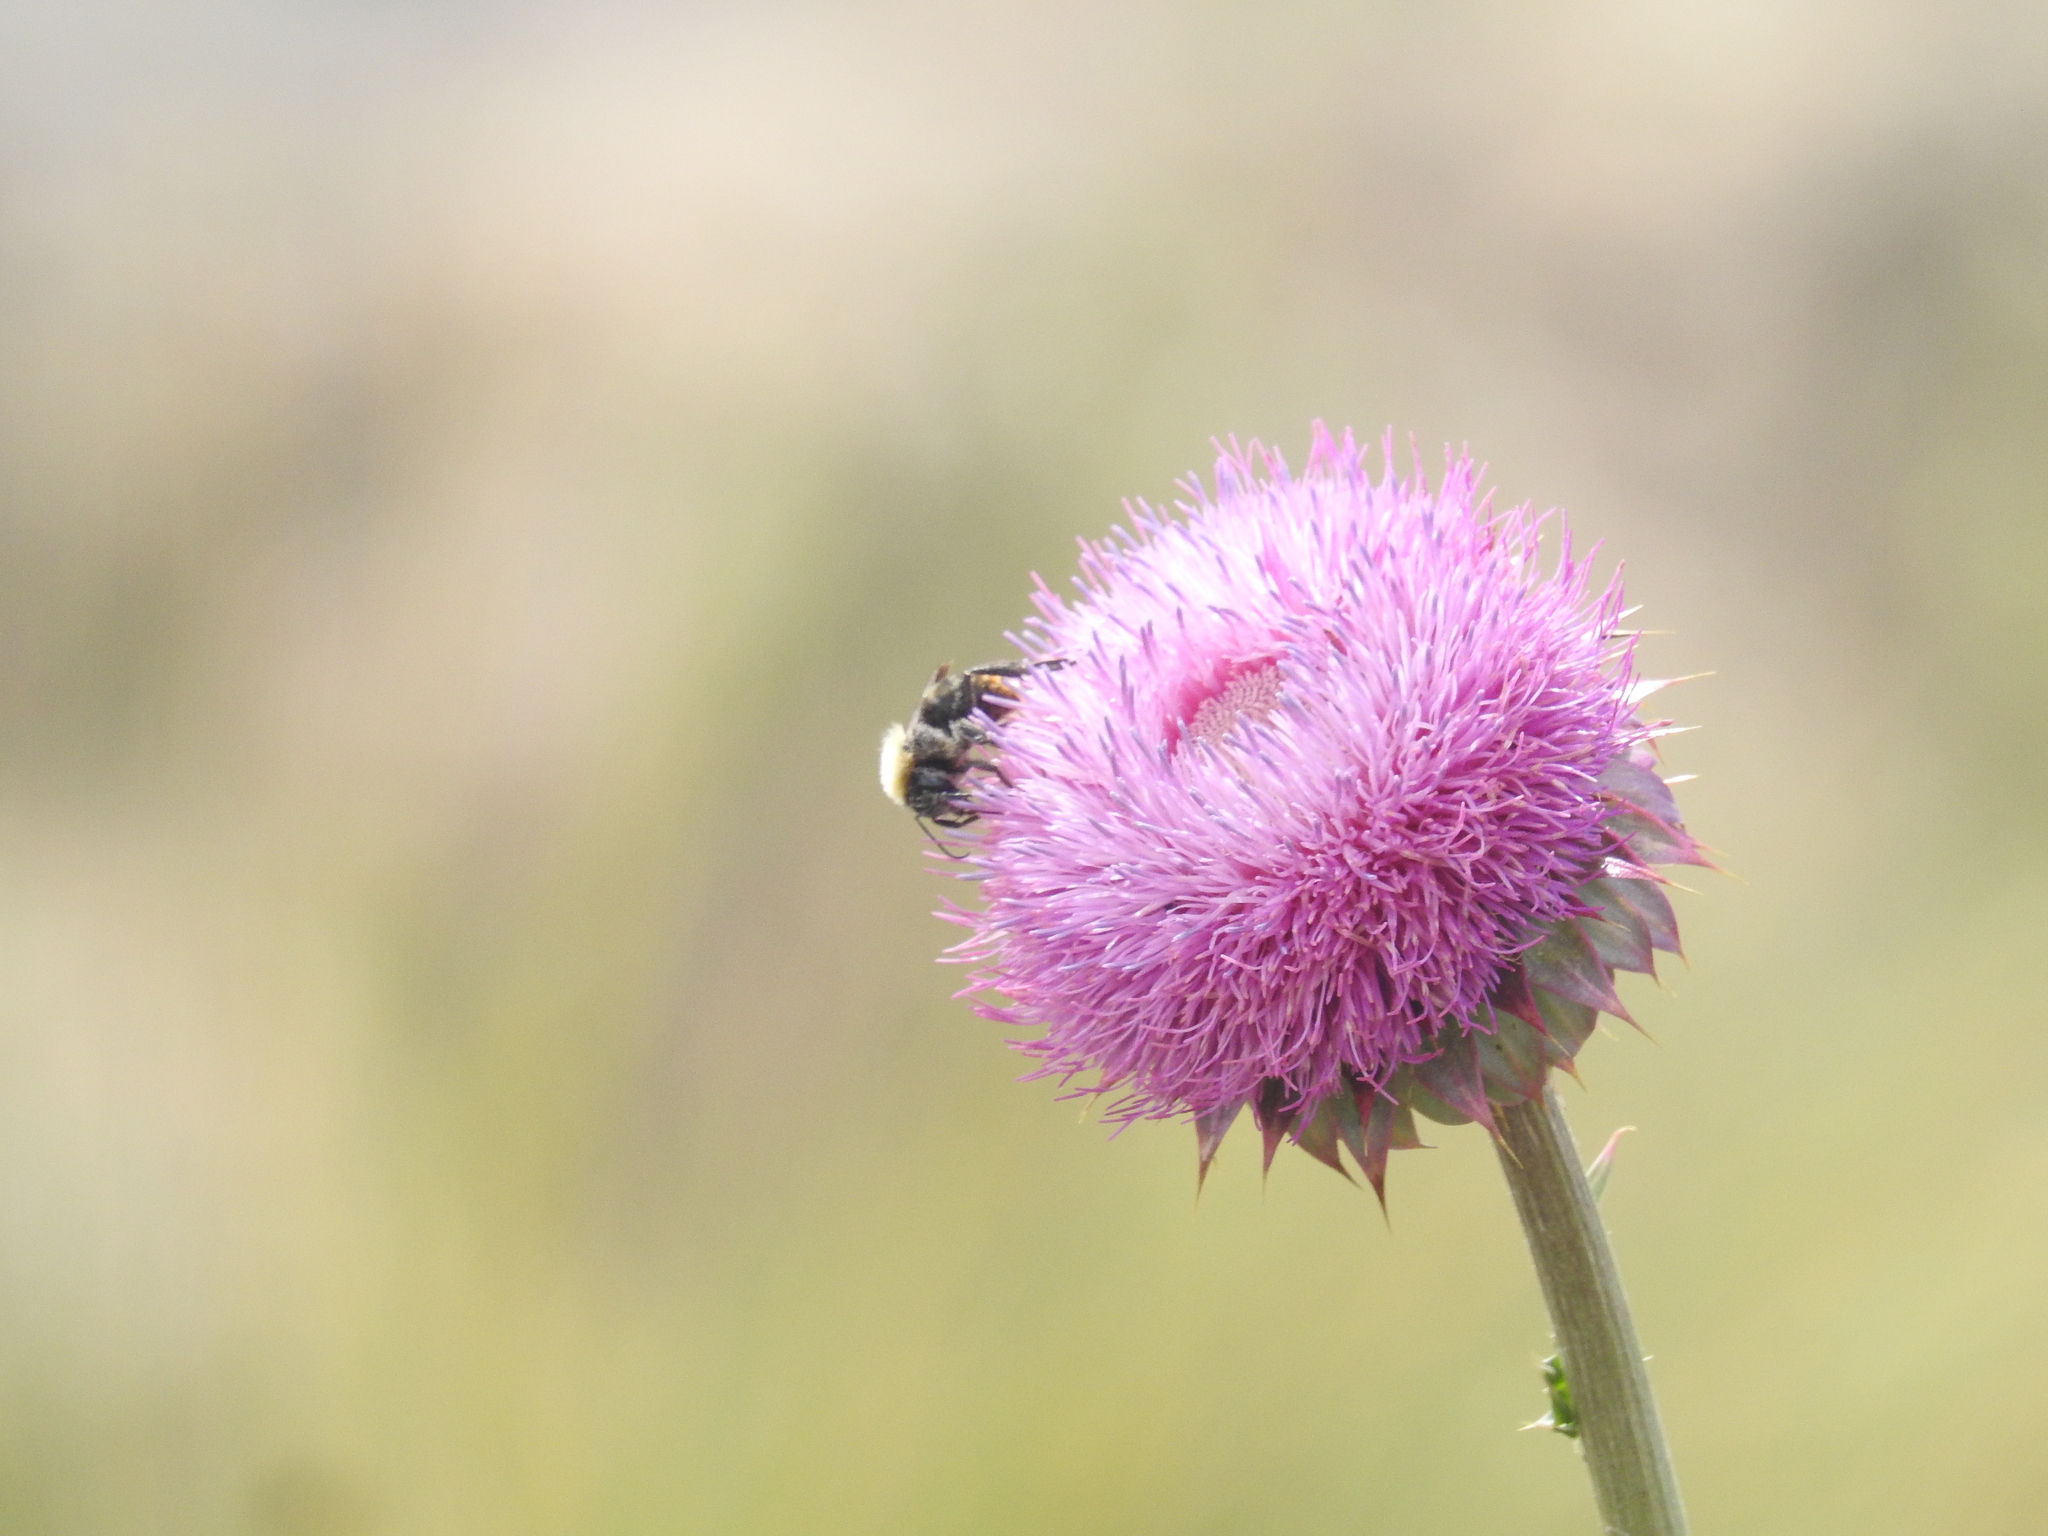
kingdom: Animalia
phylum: Arthropoda
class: Insecta
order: Hymenoptera
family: Apidae
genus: Bombus
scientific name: Bombus bellicosus
